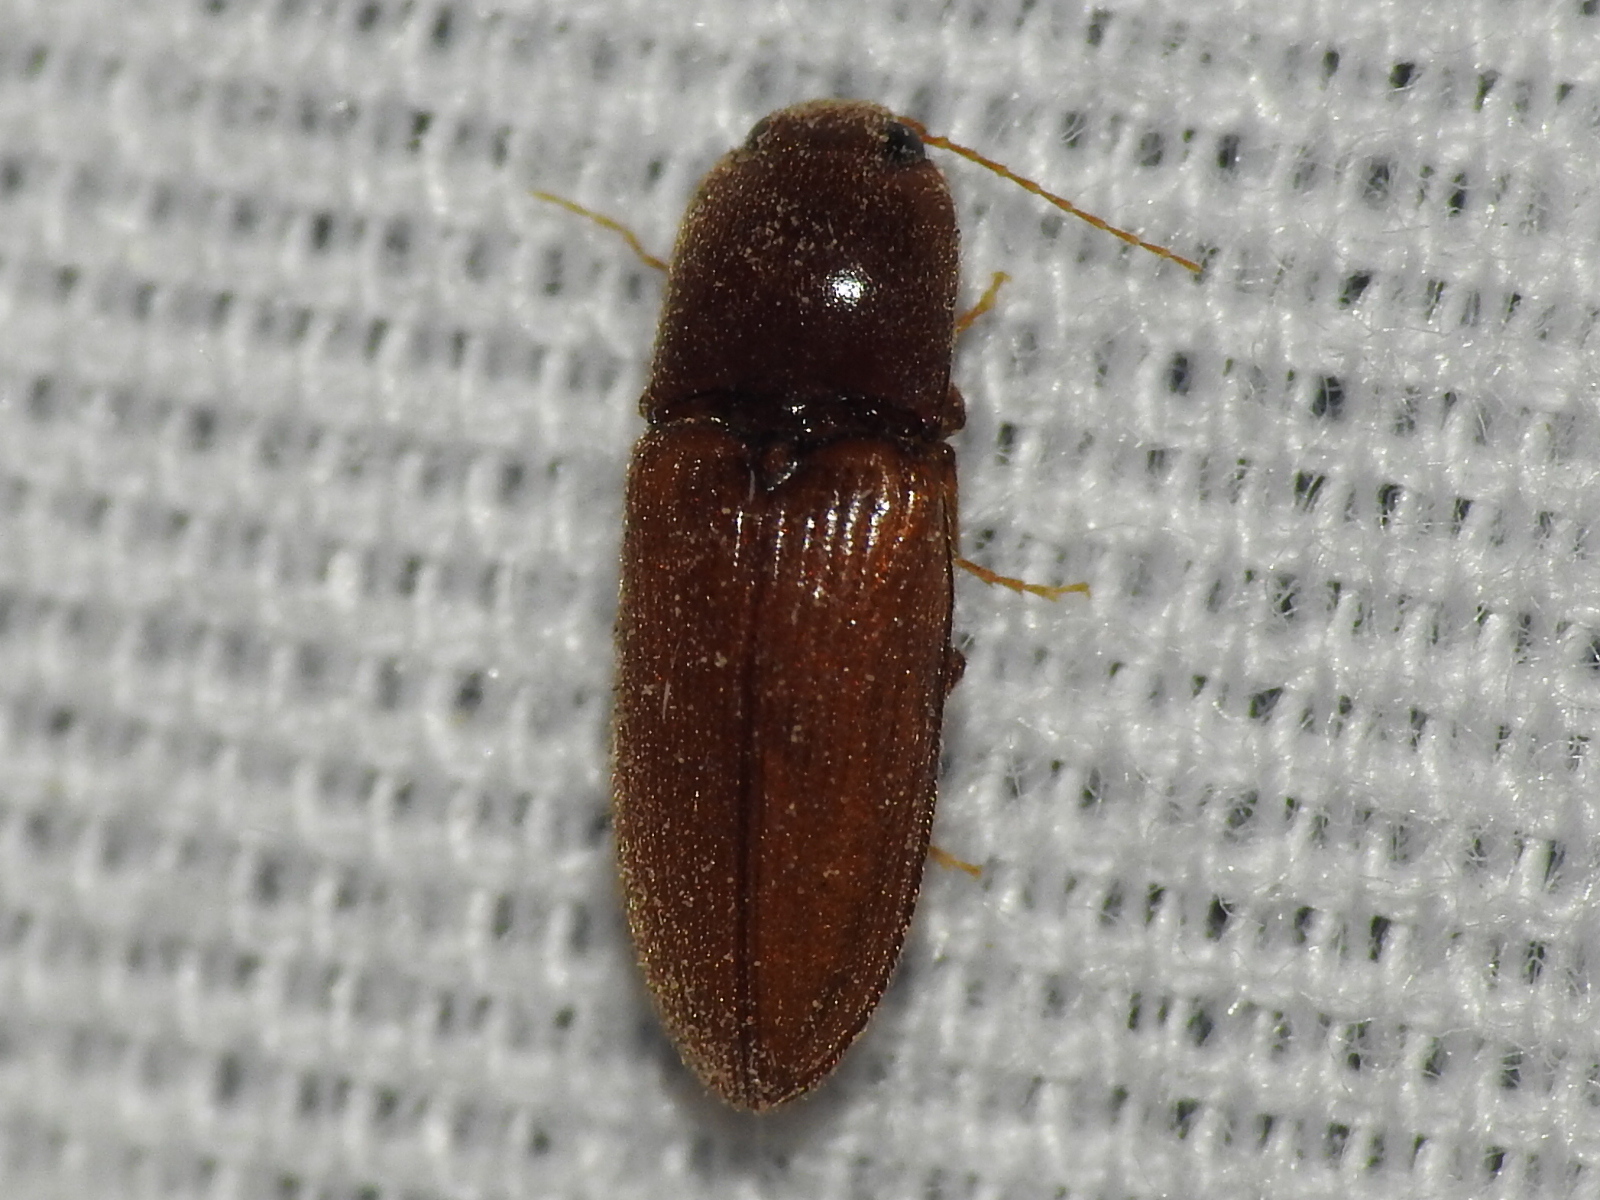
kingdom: Animalia
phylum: Arthropoda
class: Insecta
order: Coleoptera
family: Elateridae
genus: Esthesopus
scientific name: Esthesopus
